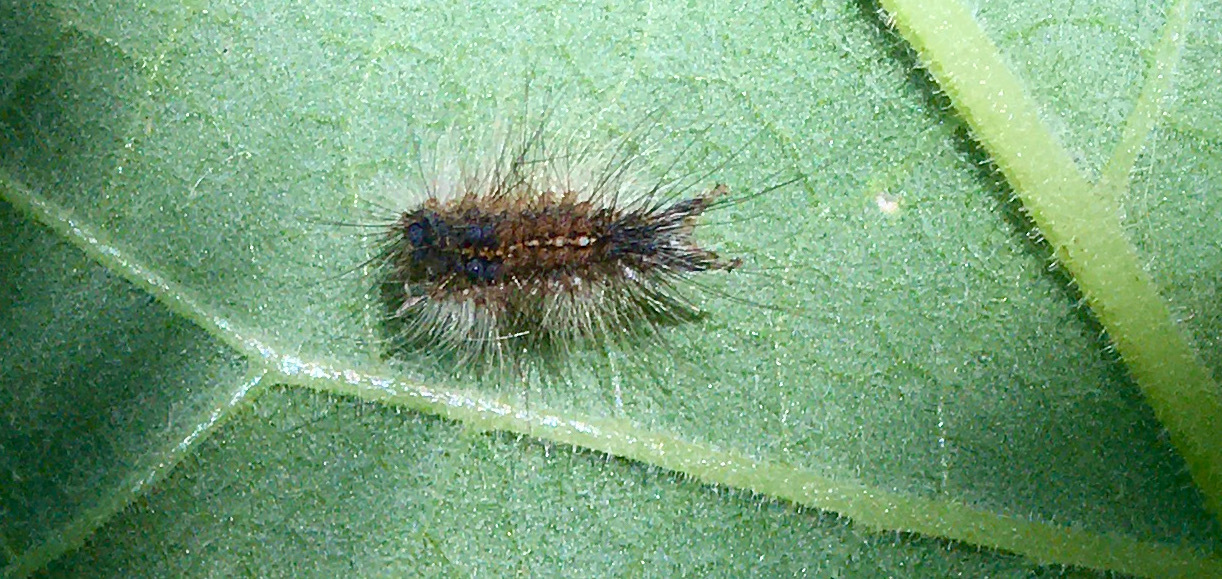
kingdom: Animalia
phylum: Arthropoda
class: Insecta
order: Lepidoptera
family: Erebidae
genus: Lymantria
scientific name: Lymantria dispar
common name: Gypsy moth
